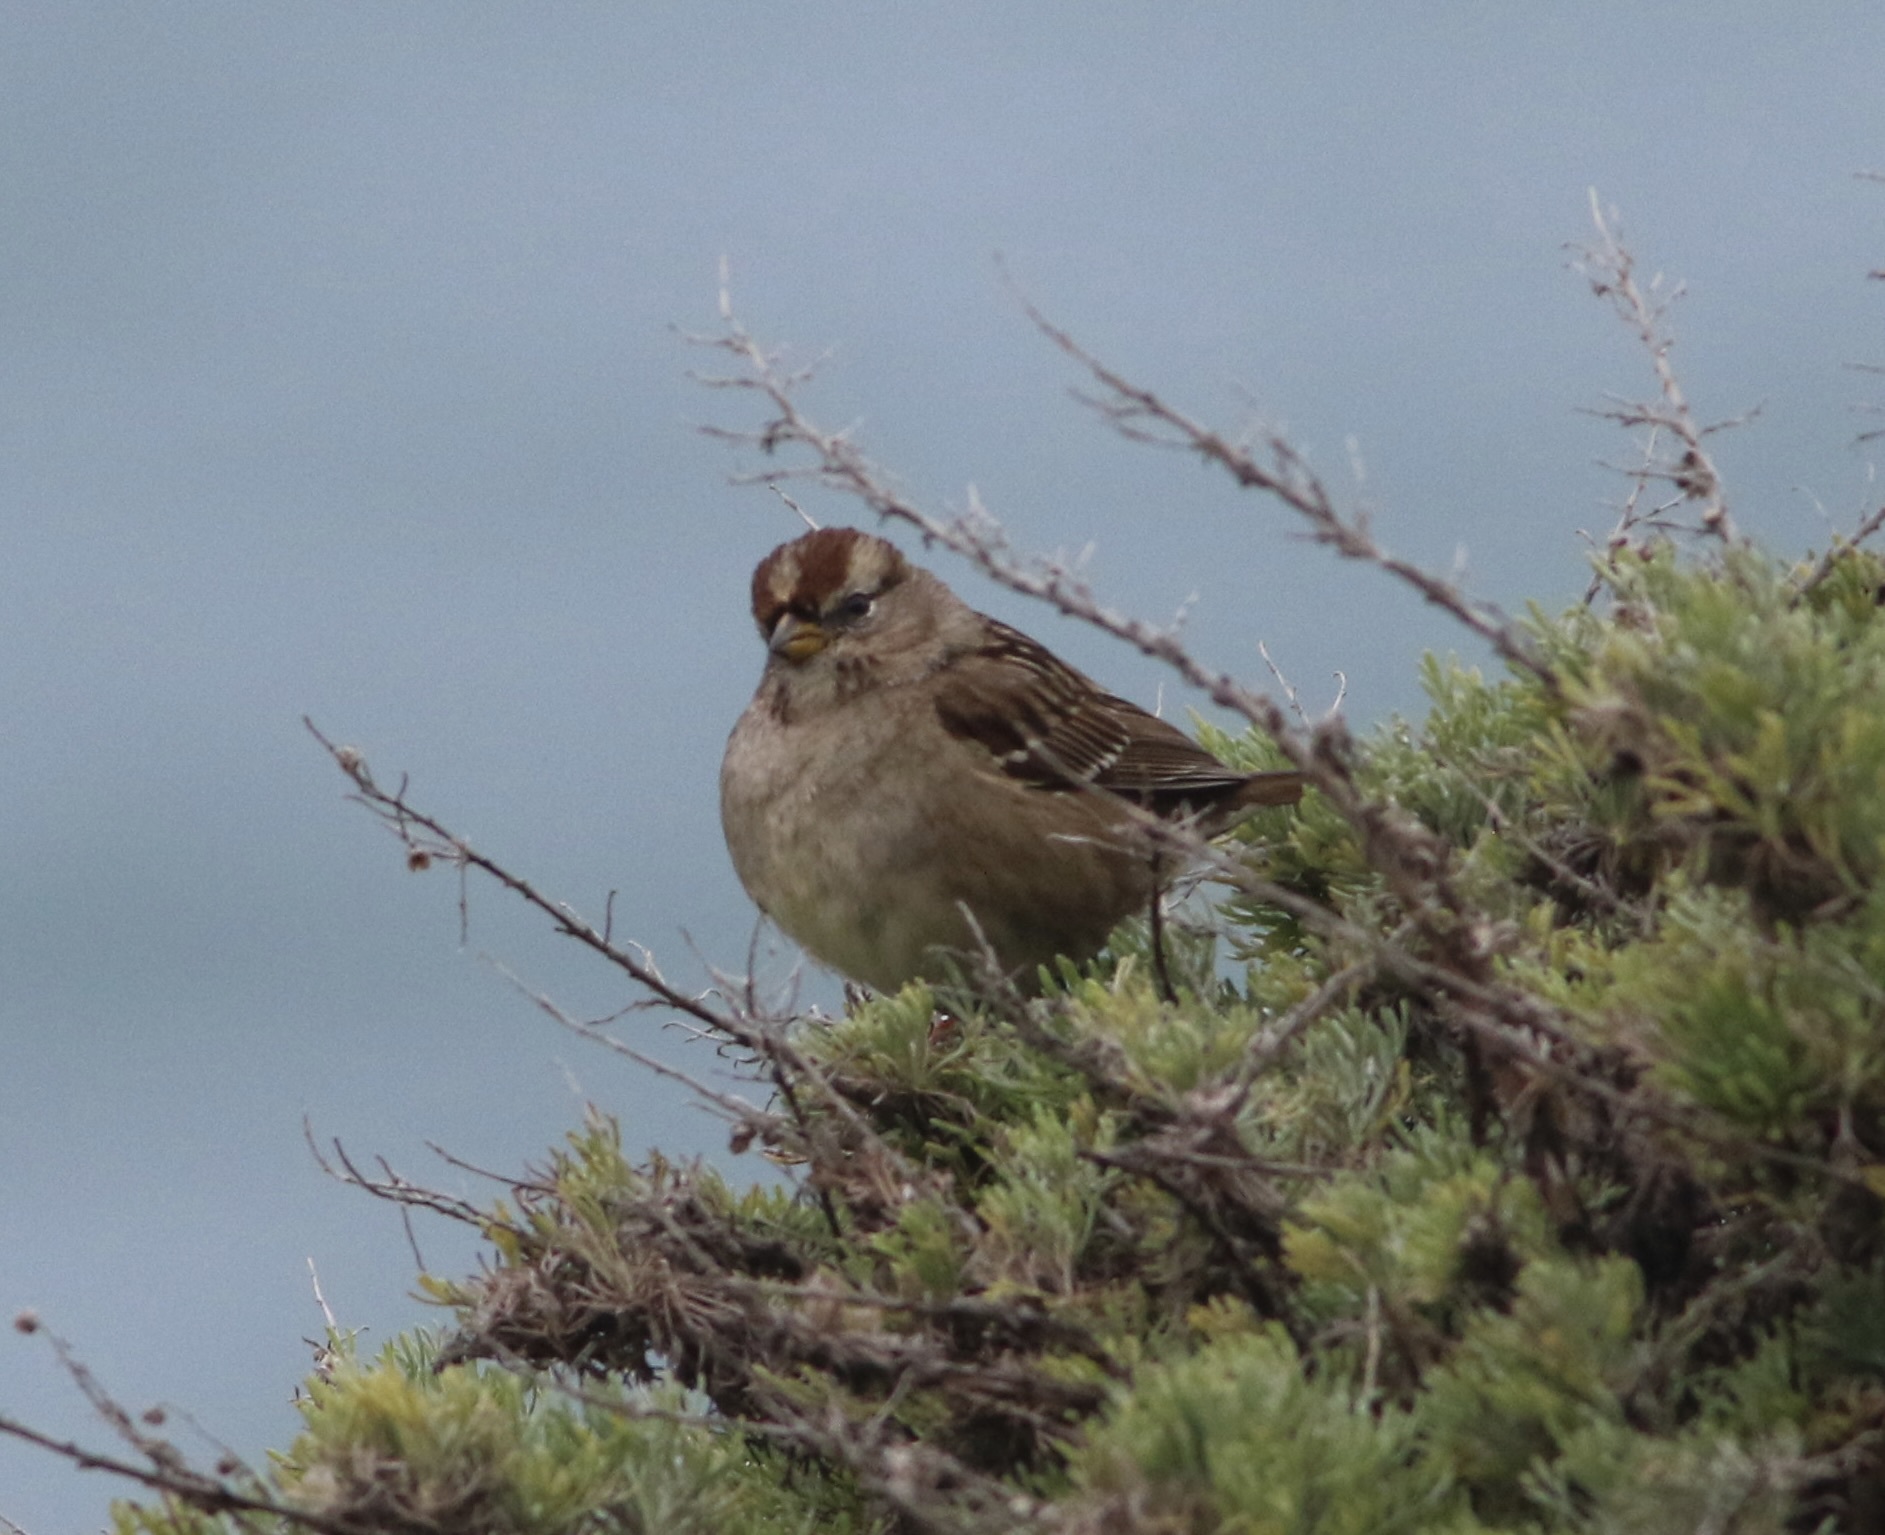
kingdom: Animalia
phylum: Chordata
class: Aves
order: Passeriformes
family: Passerellidae
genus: Zonotrichia
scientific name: Zonotrichia leucophrys
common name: White-crowned sparrow
